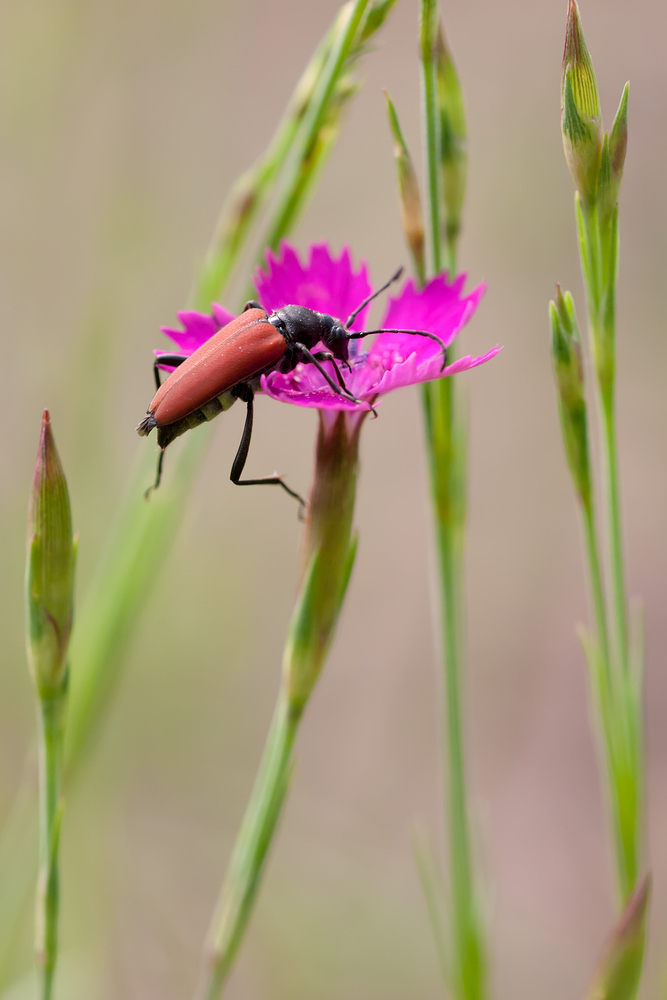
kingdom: Animalia
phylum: Arthropoda
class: Insecta
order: Coleoptera
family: Cerambycidae
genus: Anastrangalia
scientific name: Anastrangalia sanguinolenta
